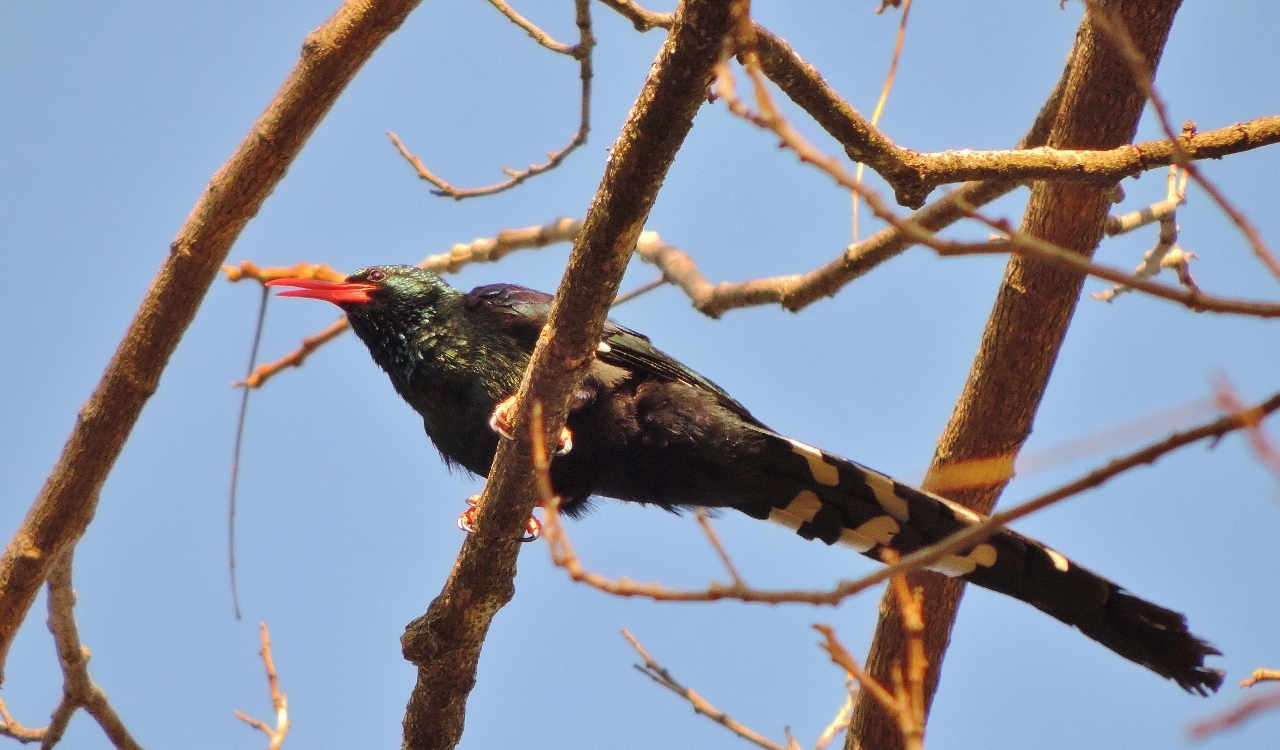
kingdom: Animalia
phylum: Chordata
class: Aves
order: Bucerotiformes
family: Phoeniculidae
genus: Phoeniculus
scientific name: Phoeniculus purpureus
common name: Green woodhoopoe
